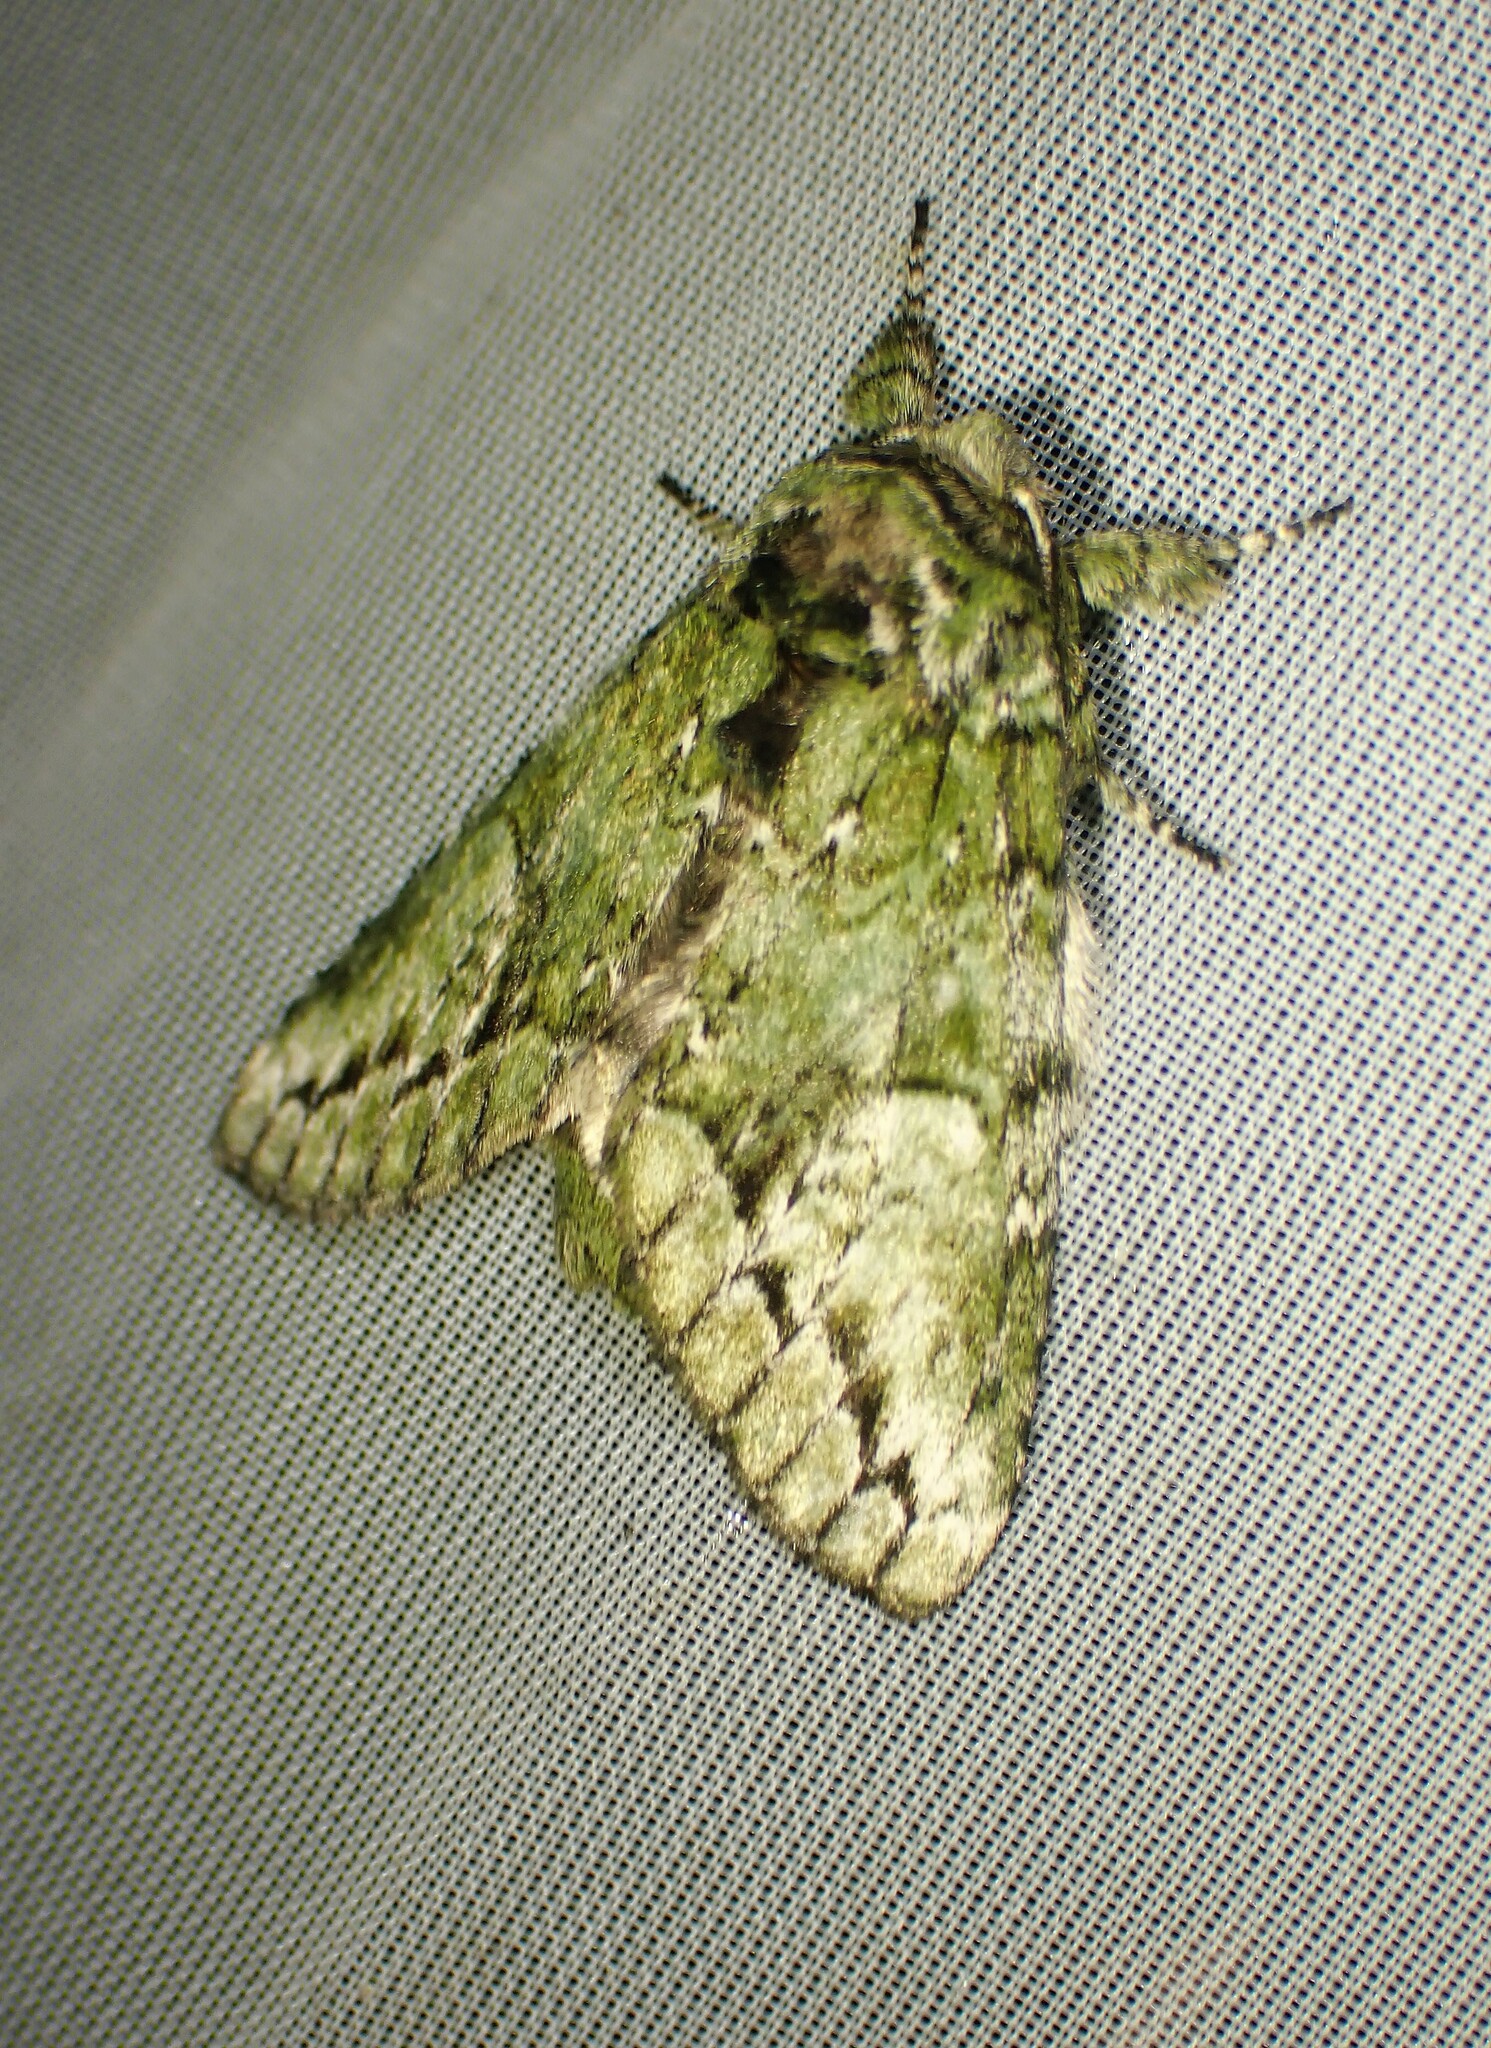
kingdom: Animalia
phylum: Arthropoda
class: Insecta
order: Lepidoptera
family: Notodontidae
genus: Heterocampa
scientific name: Heterocampa
